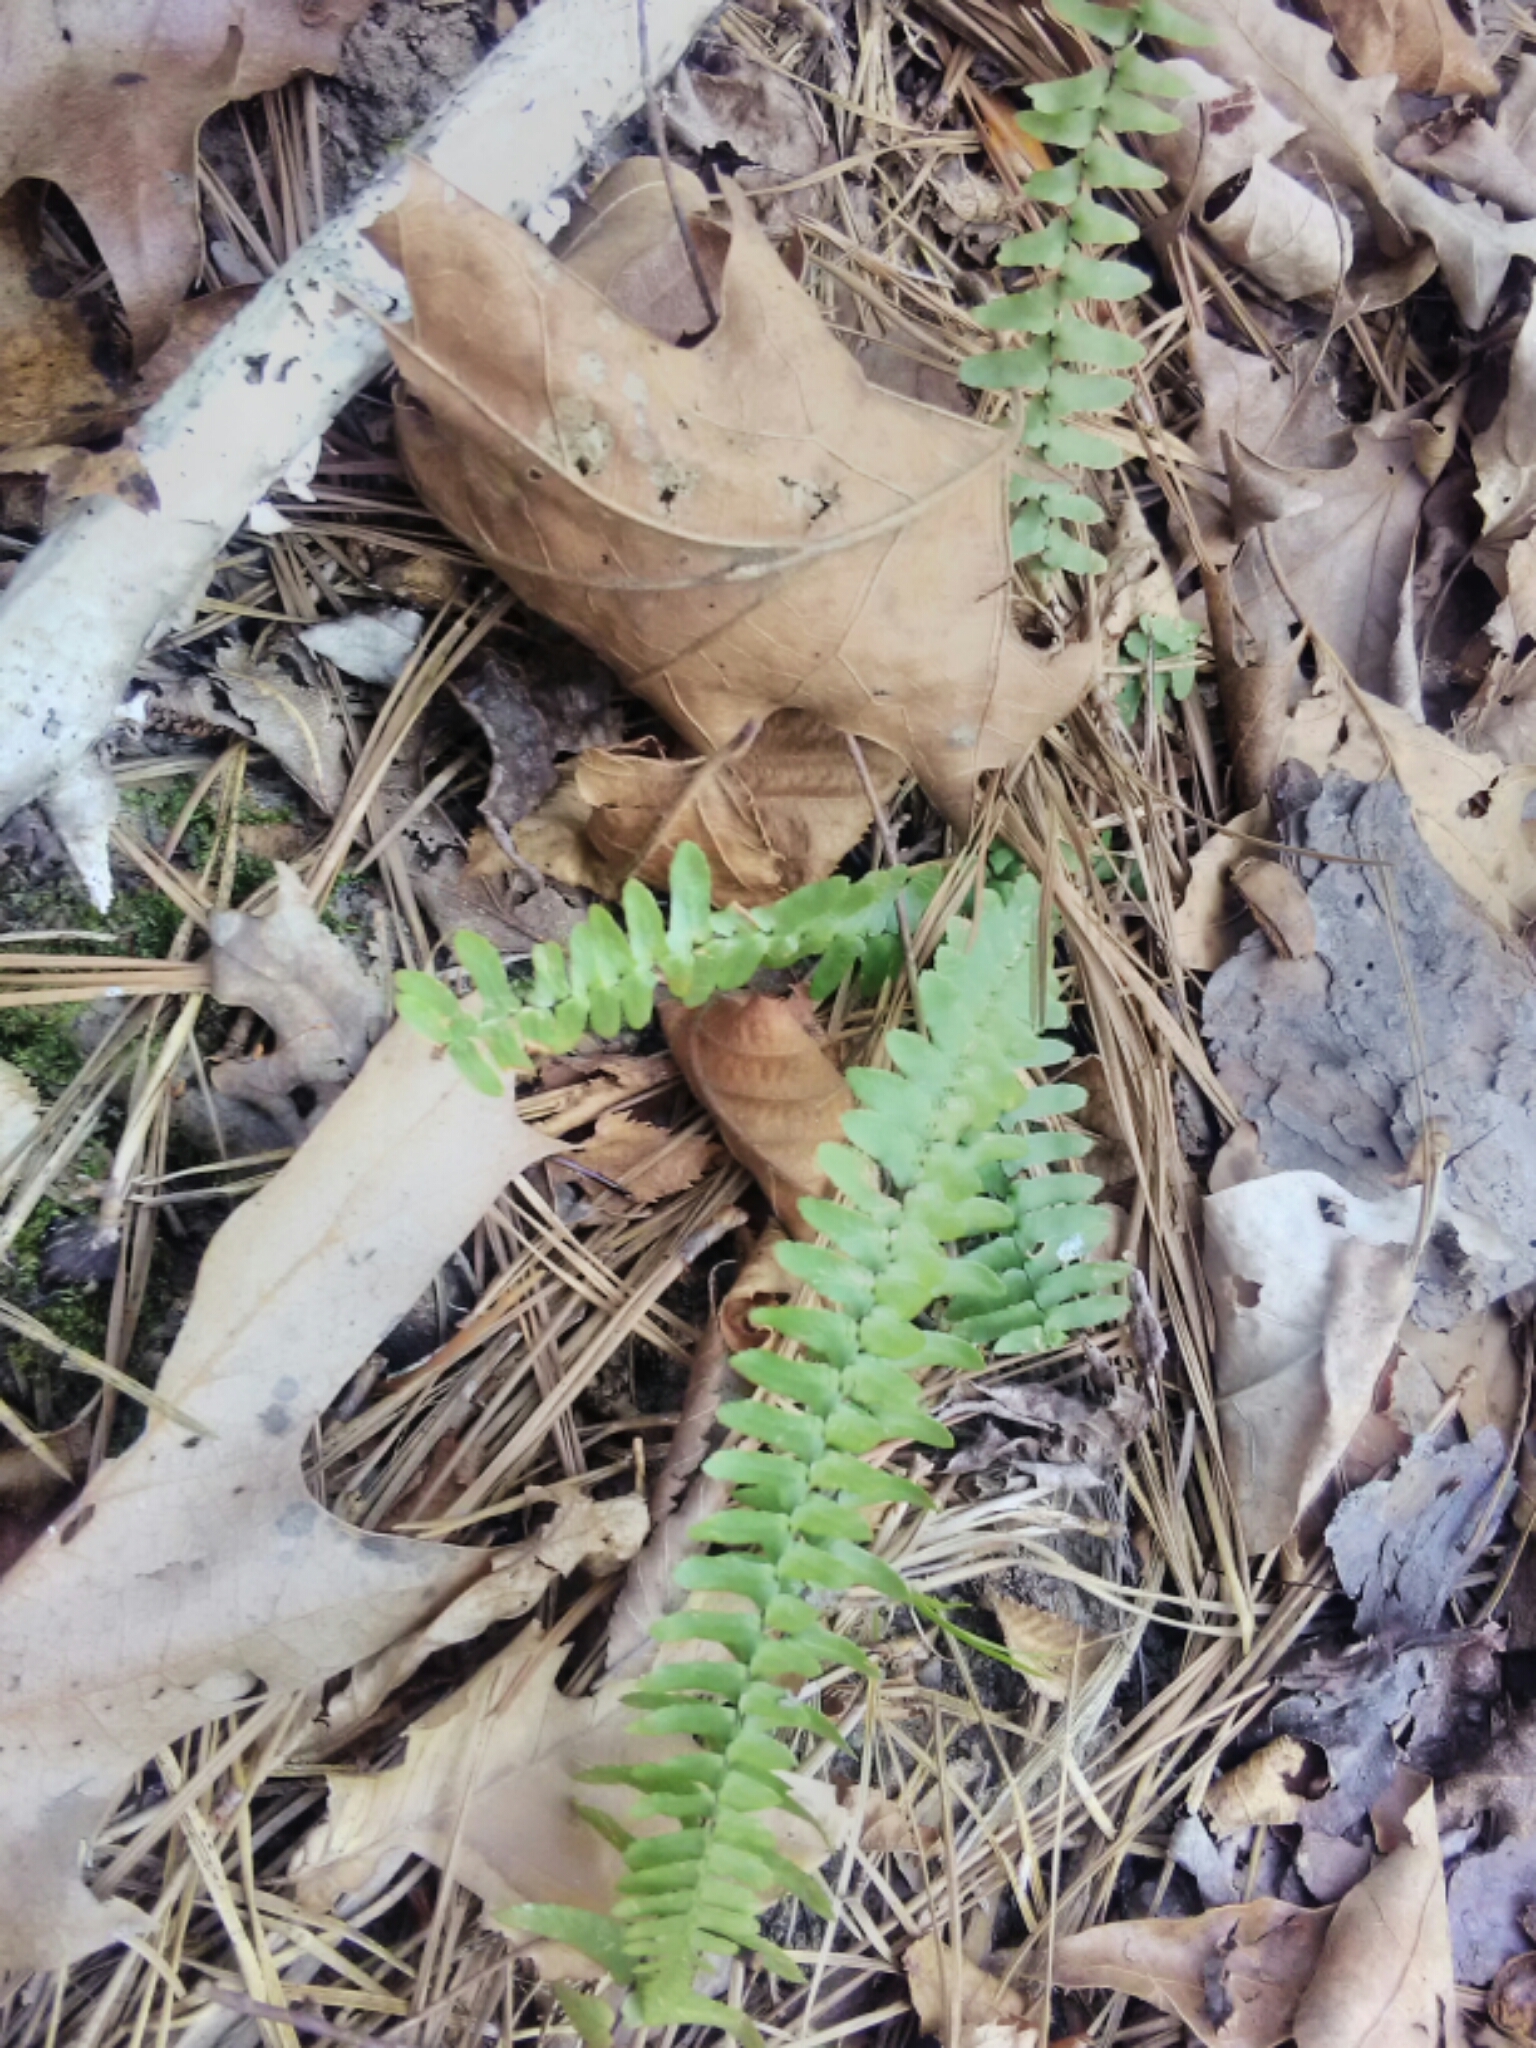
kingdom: Plantae
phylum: Tracheophyta
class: Polypodiopsida
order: Polypodiales
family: Aspleniaceae
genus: Asplenium
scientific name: Asplenium platyneuron
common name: Ebony spleenwort
